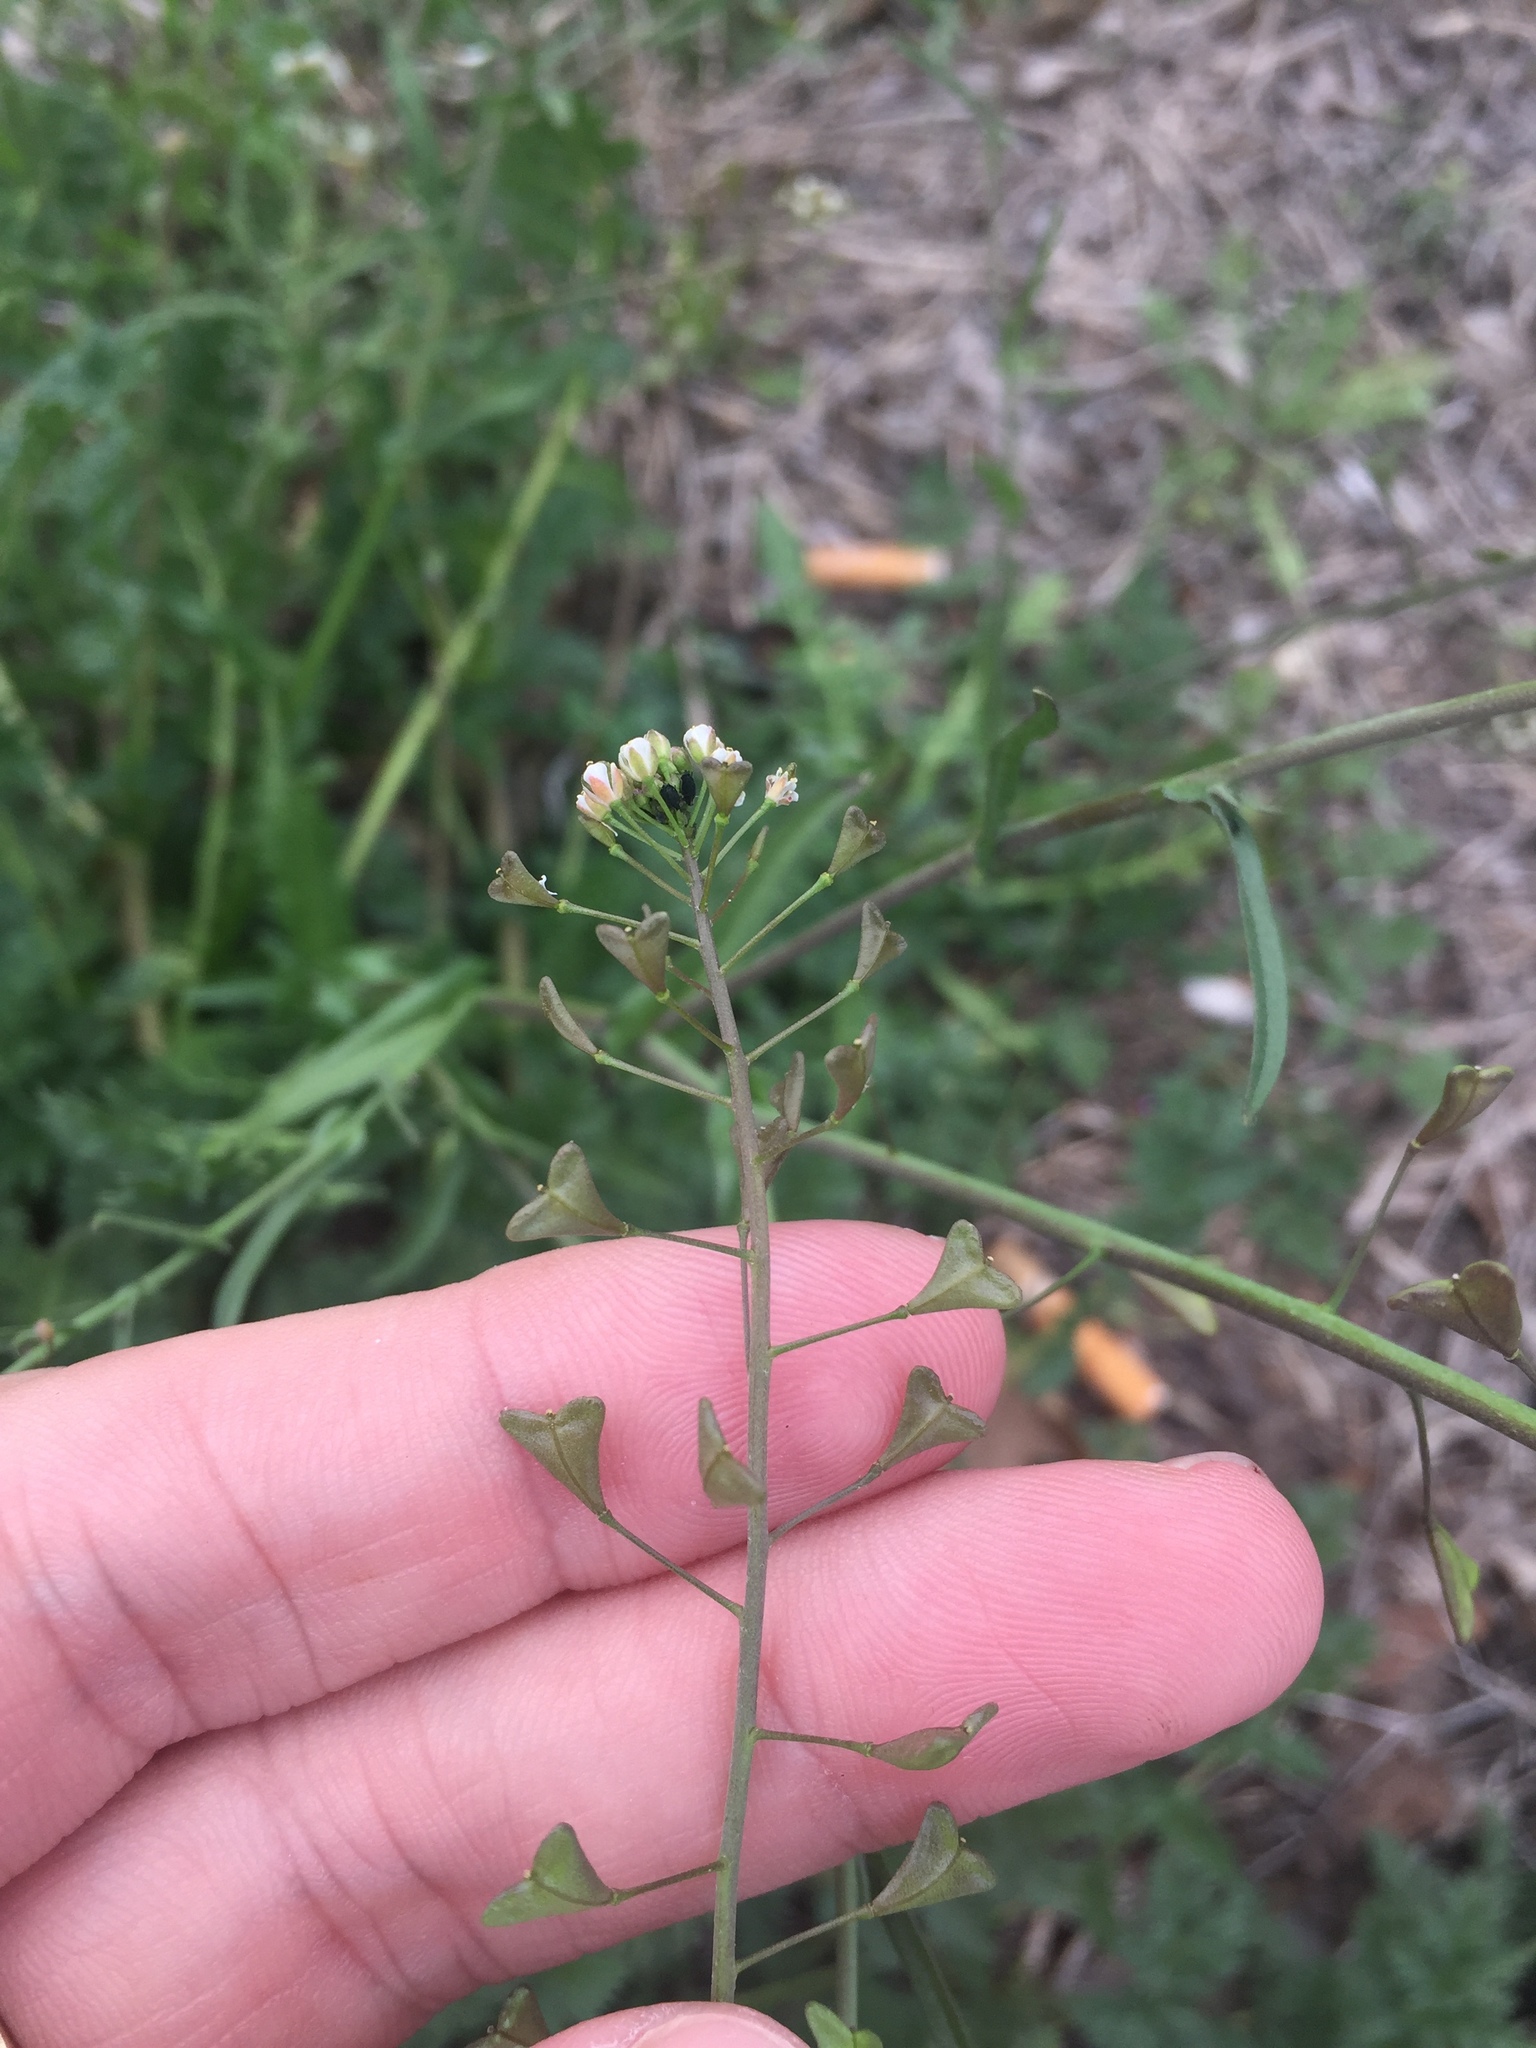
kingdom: Plantae
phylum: Tracheophyta
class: Magnoliopsida
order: Brassicales
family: Brassicaceae
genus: Capsella
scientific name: Capsella bursa-pastoris
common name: Shepherd's purse
